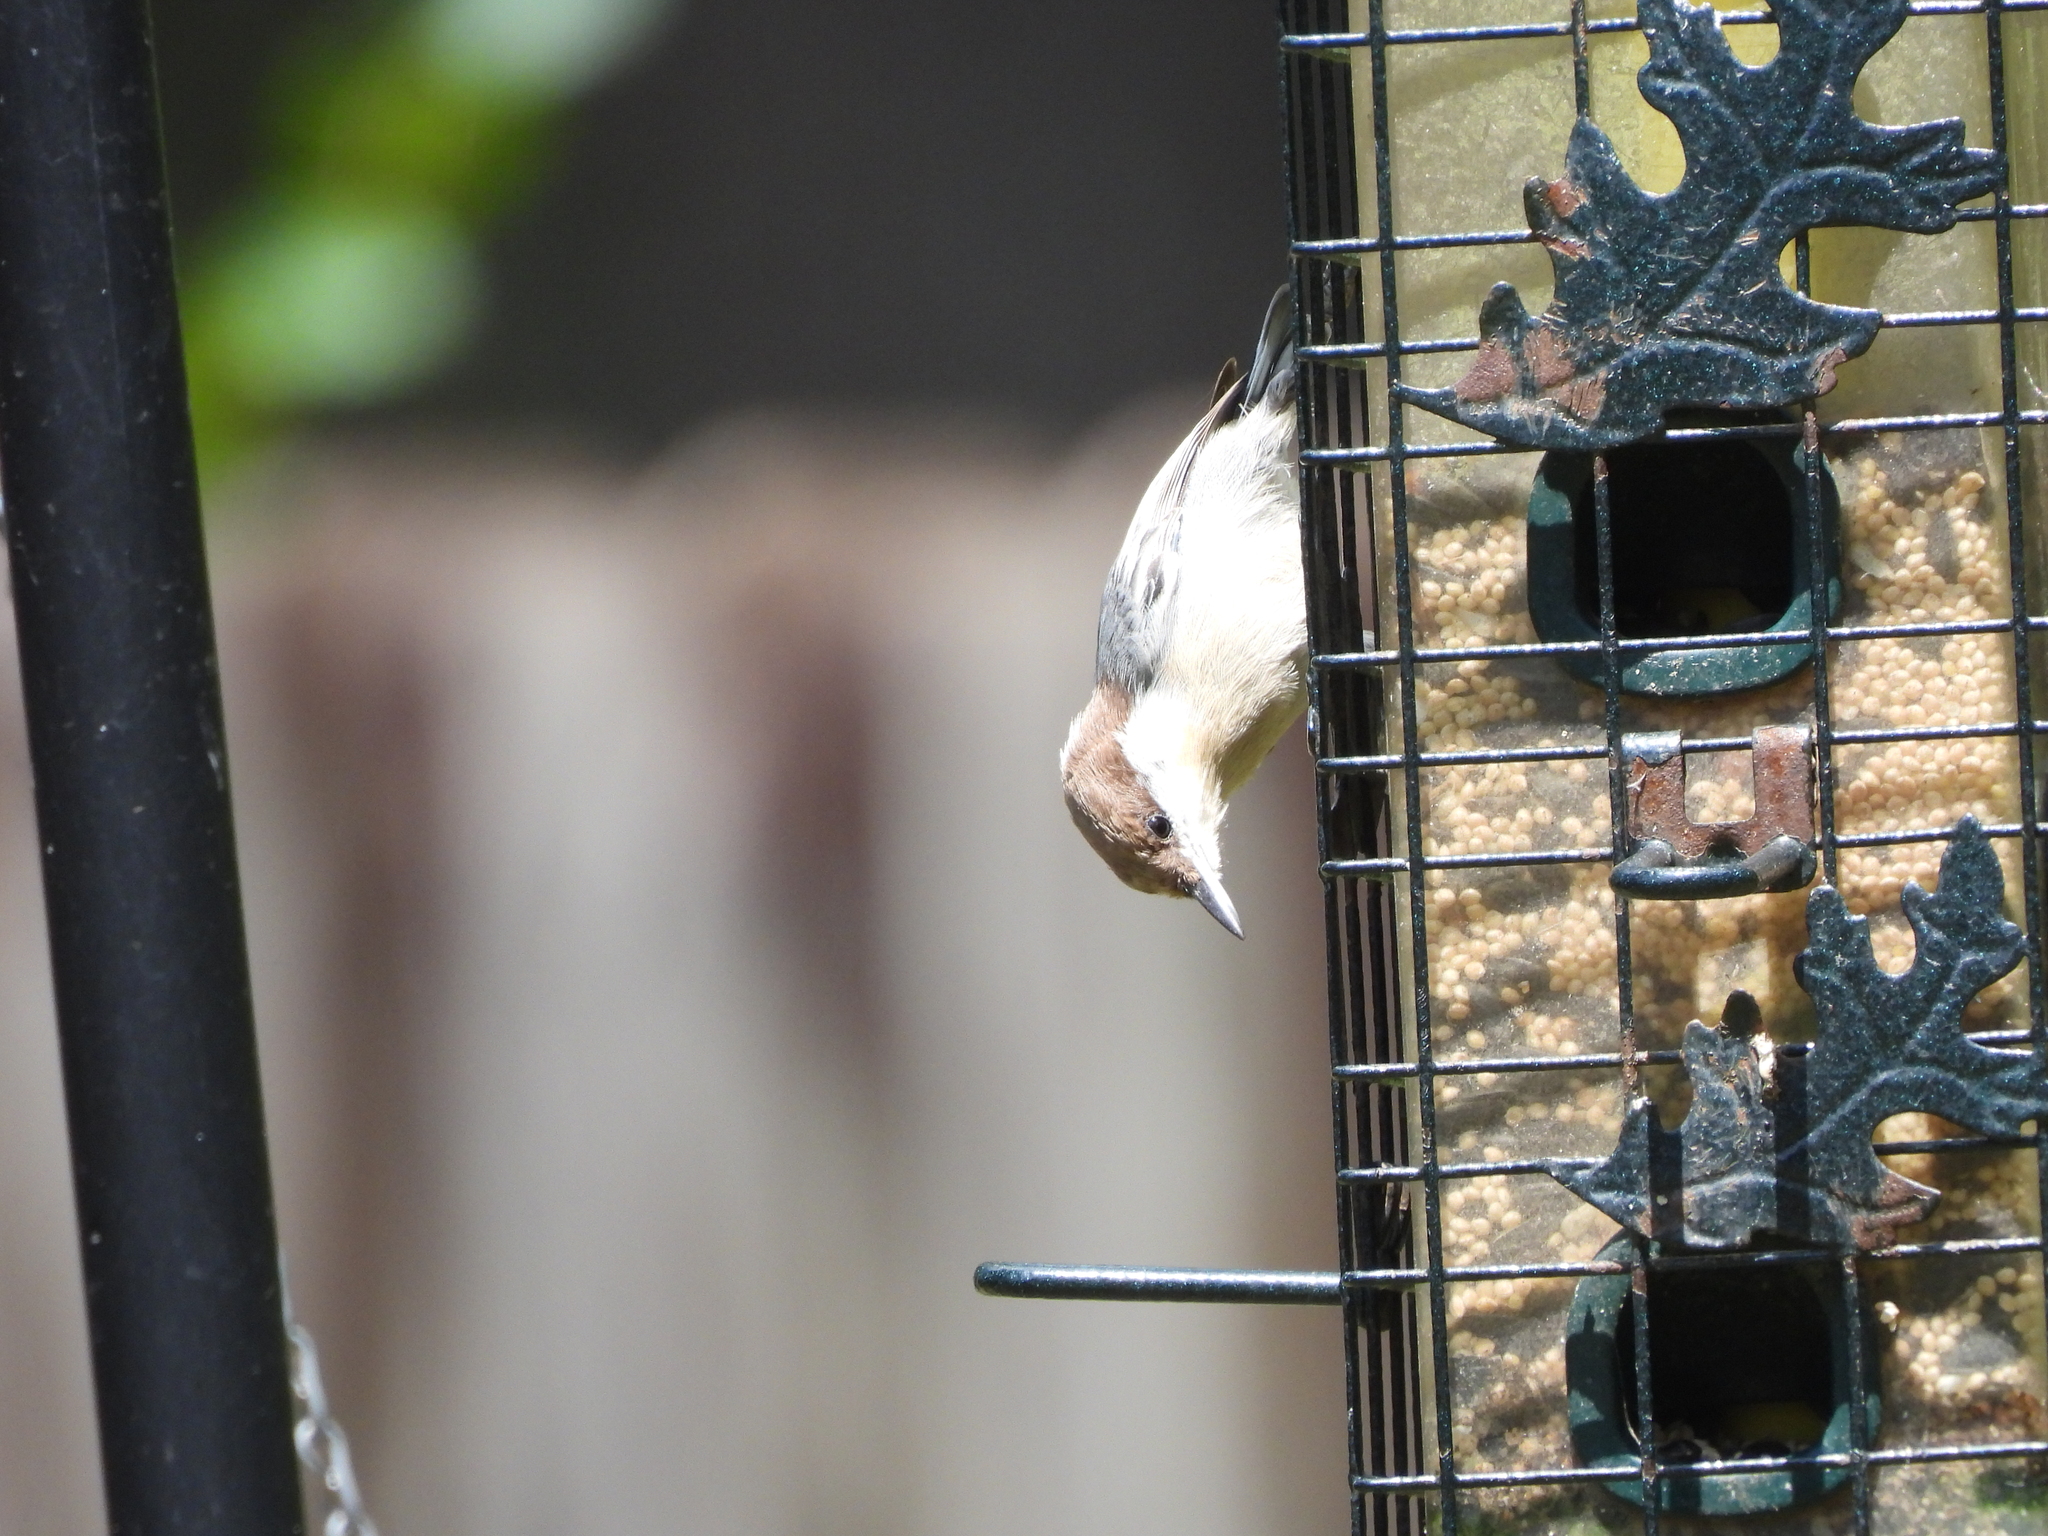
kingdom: Animalia
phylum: Chordata
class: Aves
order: Passeriformes
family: Sittidae
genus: Sitta
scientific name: Sitta pusilla
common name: Brown-headed nuthatch
